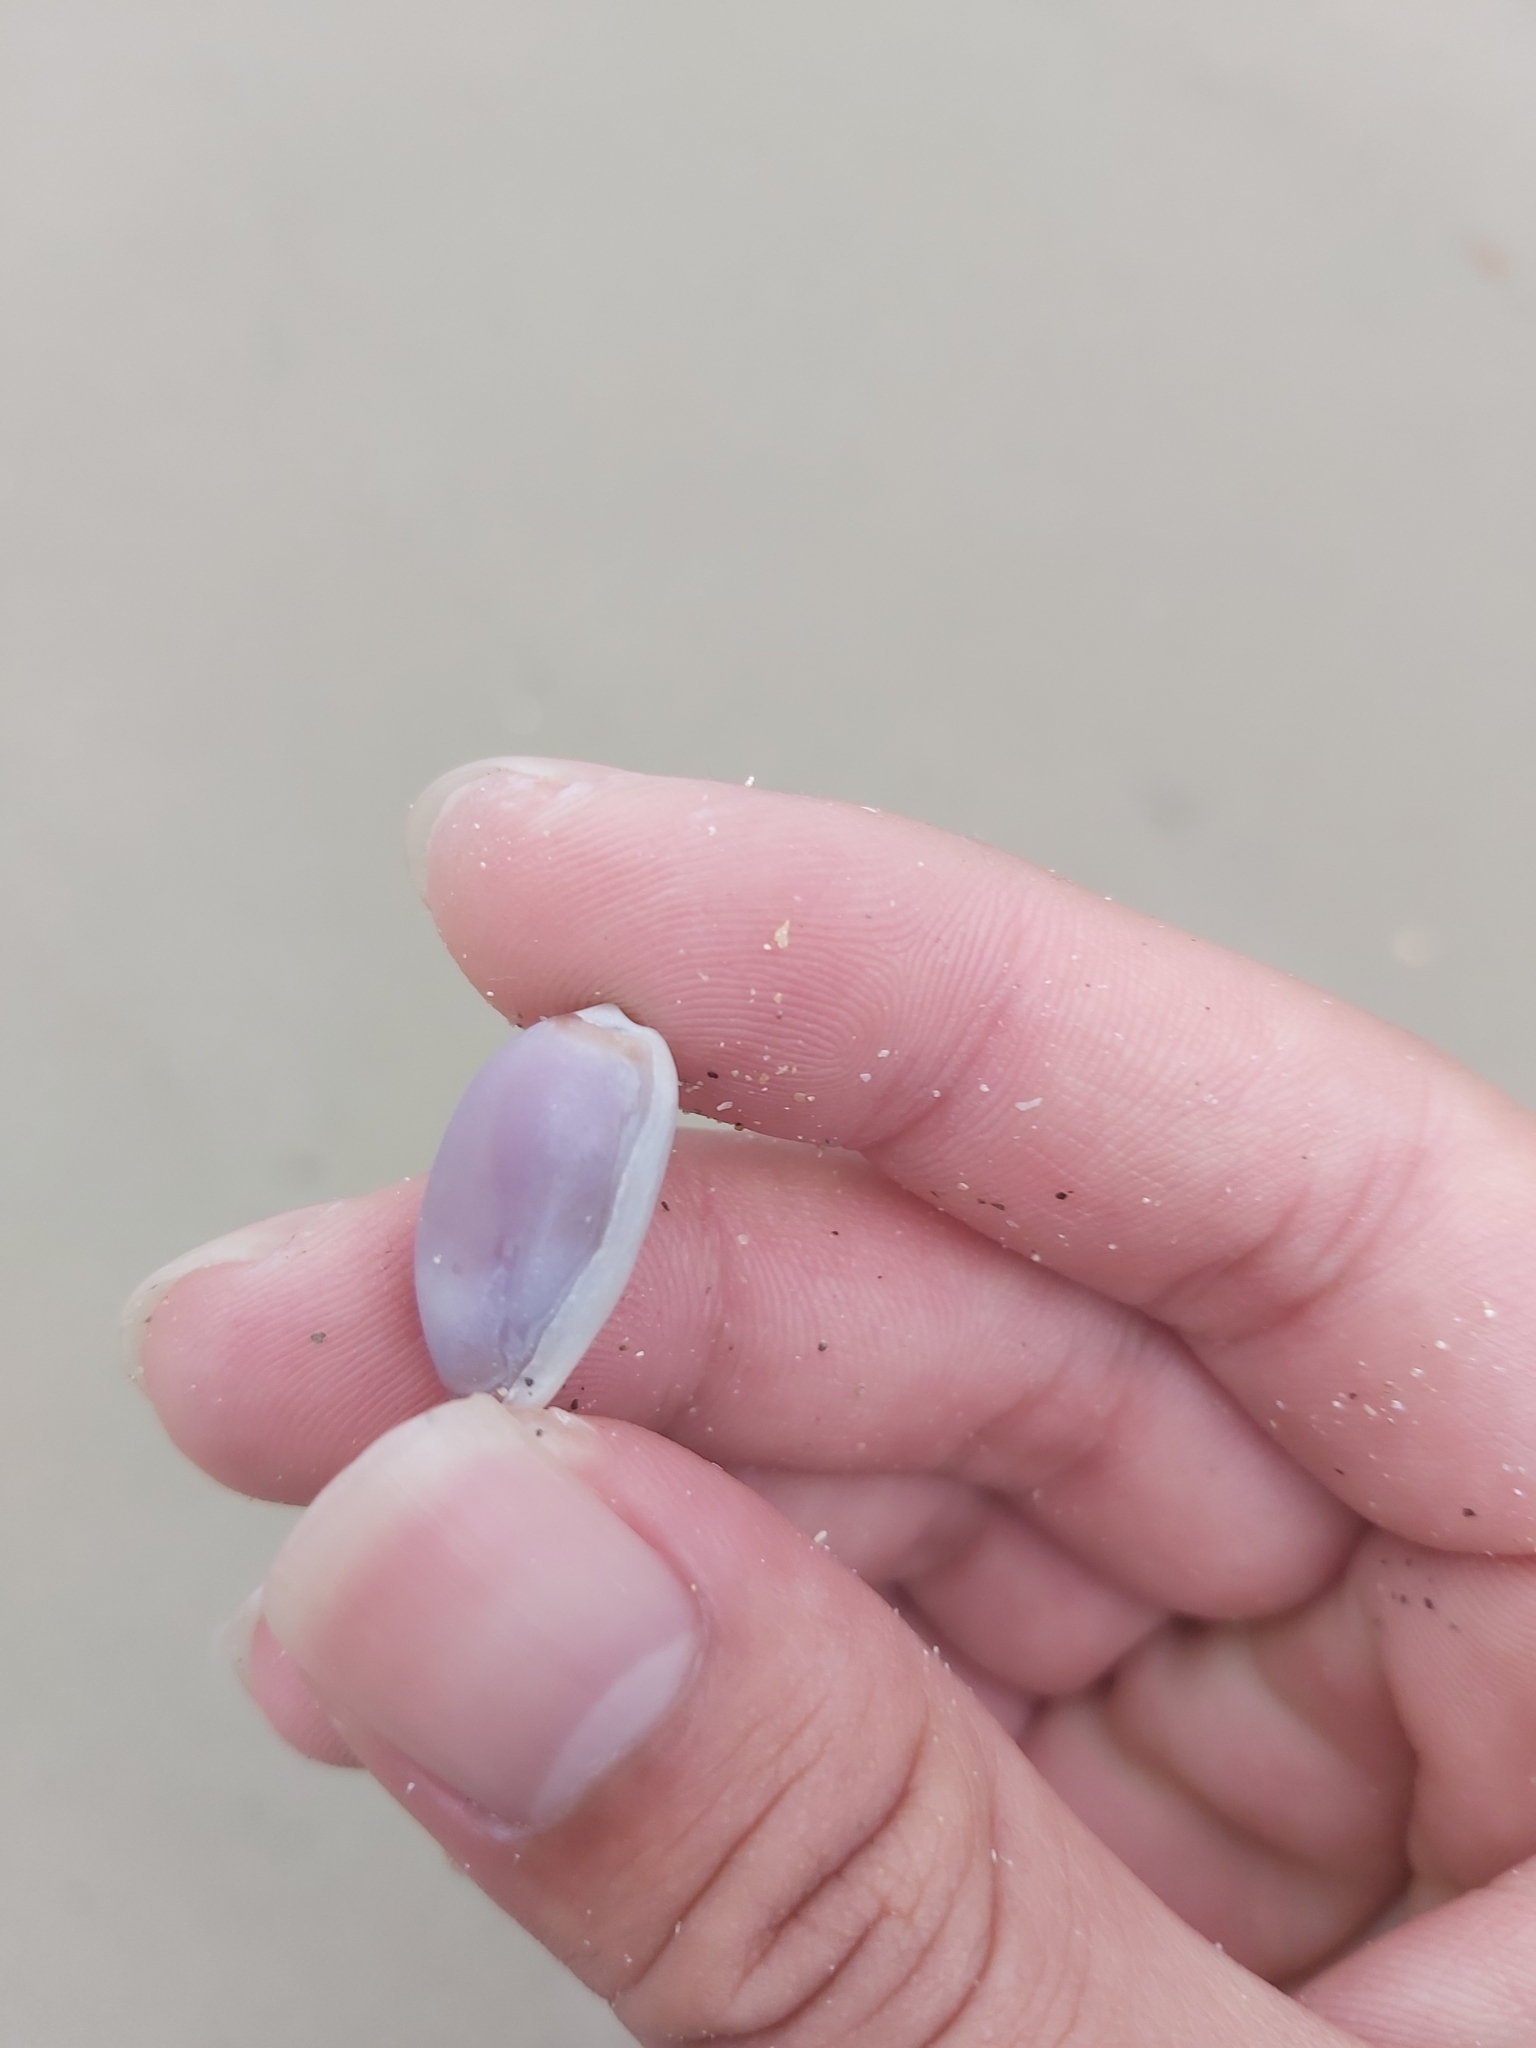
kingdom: Animalia
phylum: Mollusca
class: Gastropoda
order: Littorinimorpha
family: Cypraeidae
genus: Erronea
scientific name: Erronea errones
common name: Mistaken cowrie
